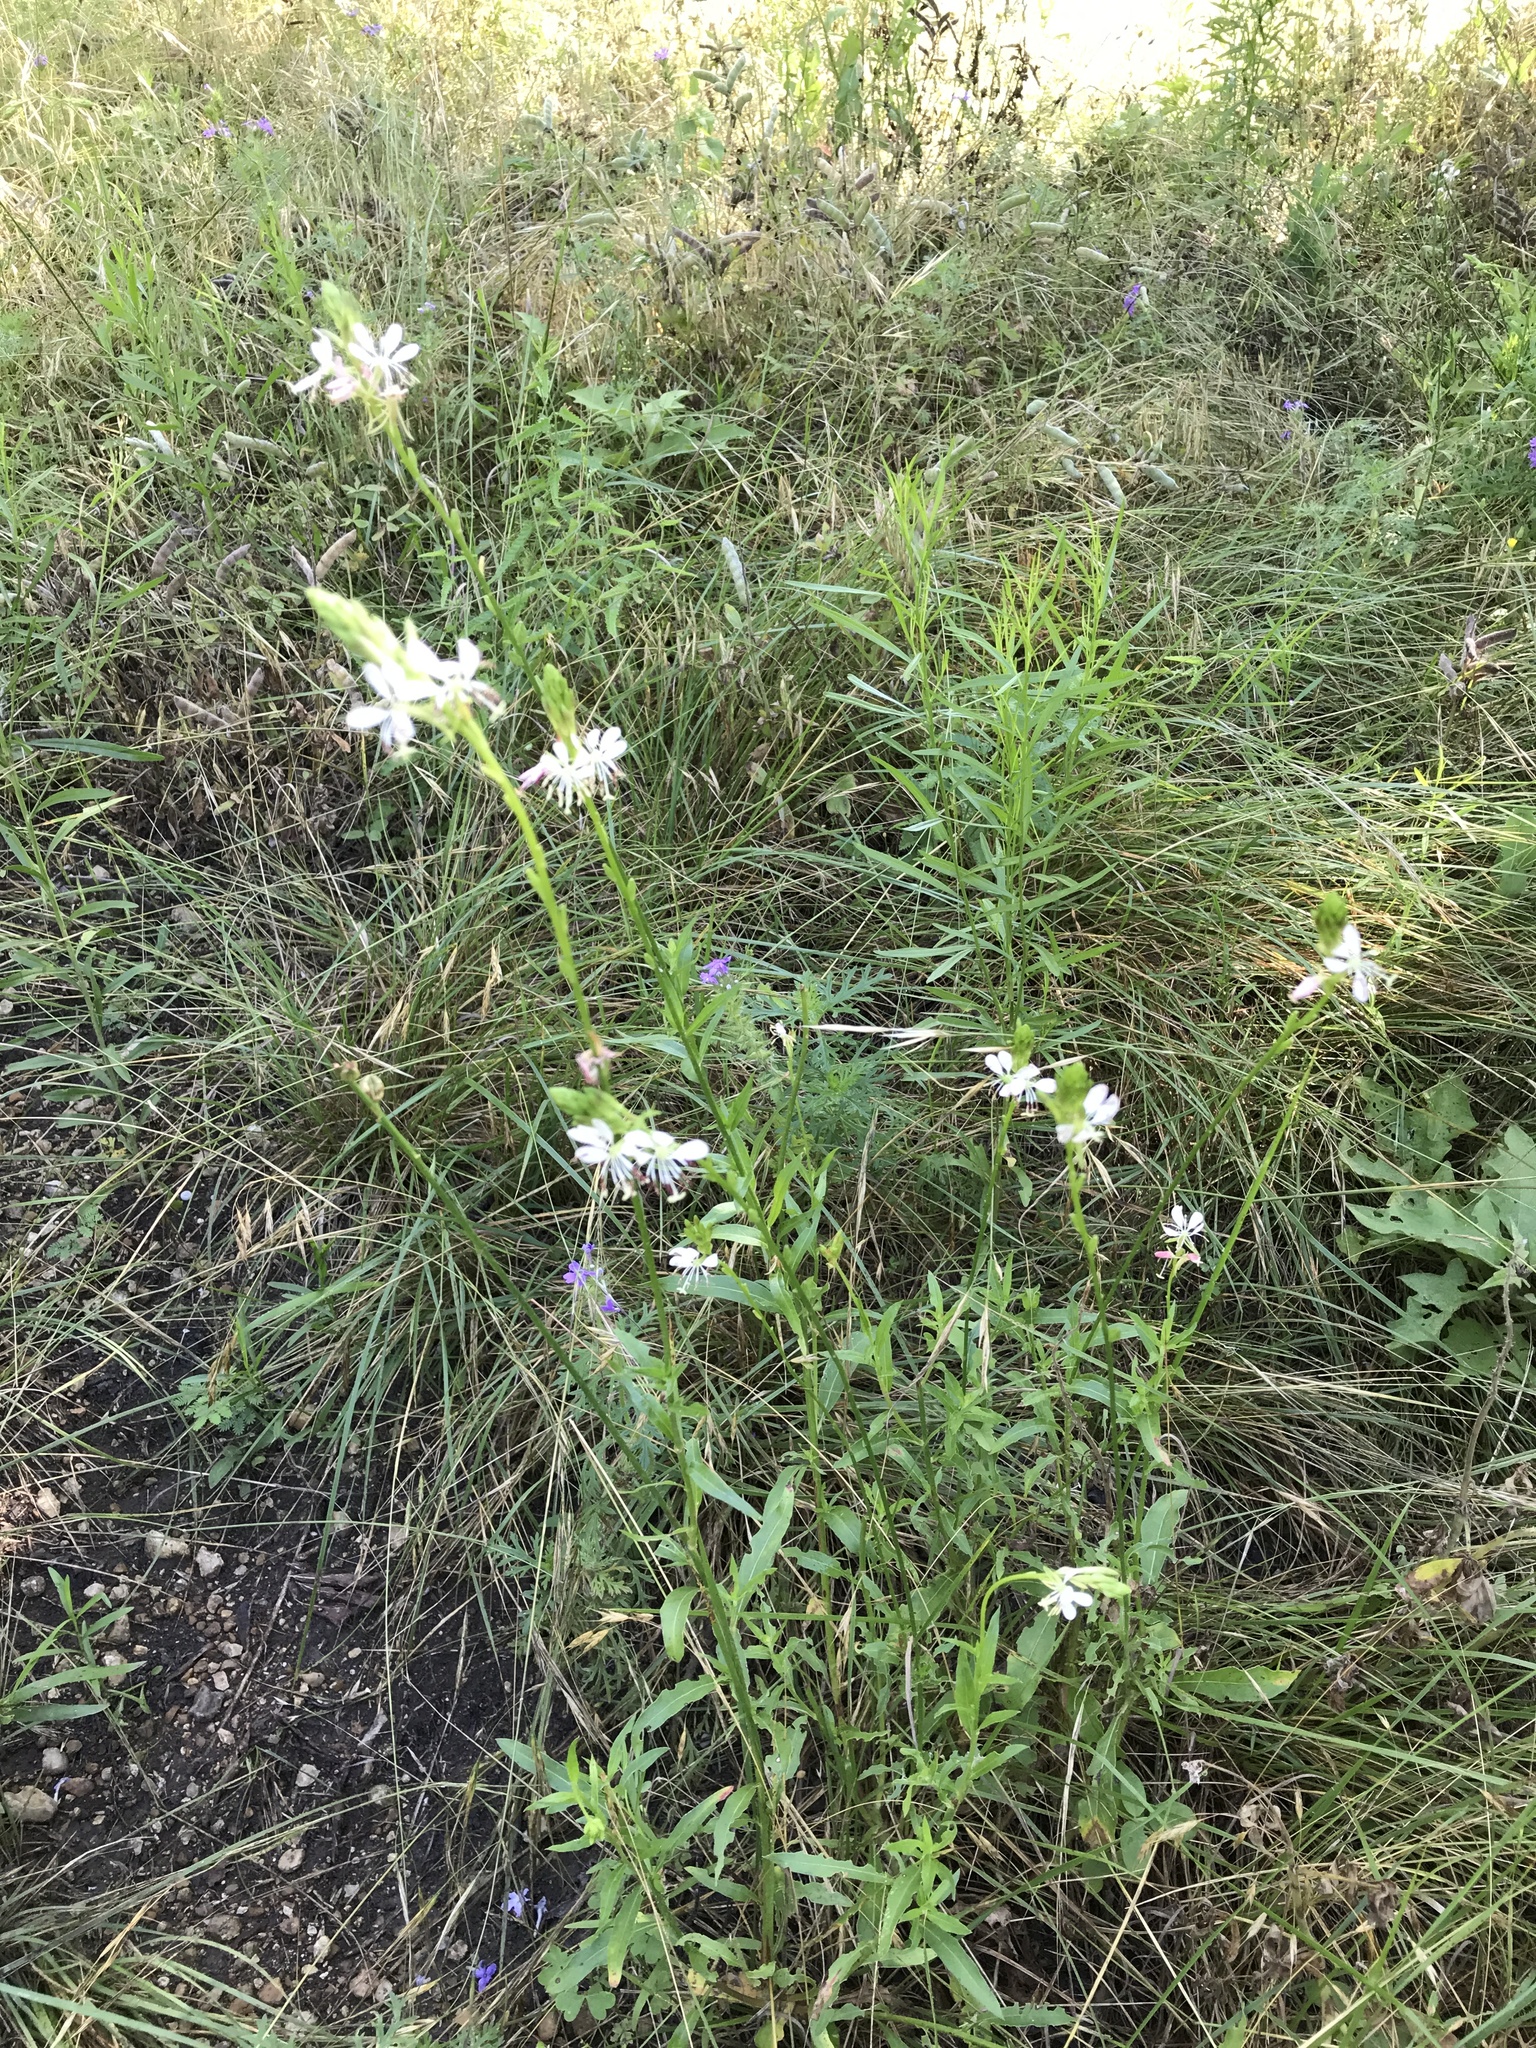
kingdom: Plantae
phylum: Tracheophyta
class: Magnoliopsida
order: Myrtales
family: Onagraceae
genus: Oenothera
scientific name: Oenothera suffulta
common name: Kisses
